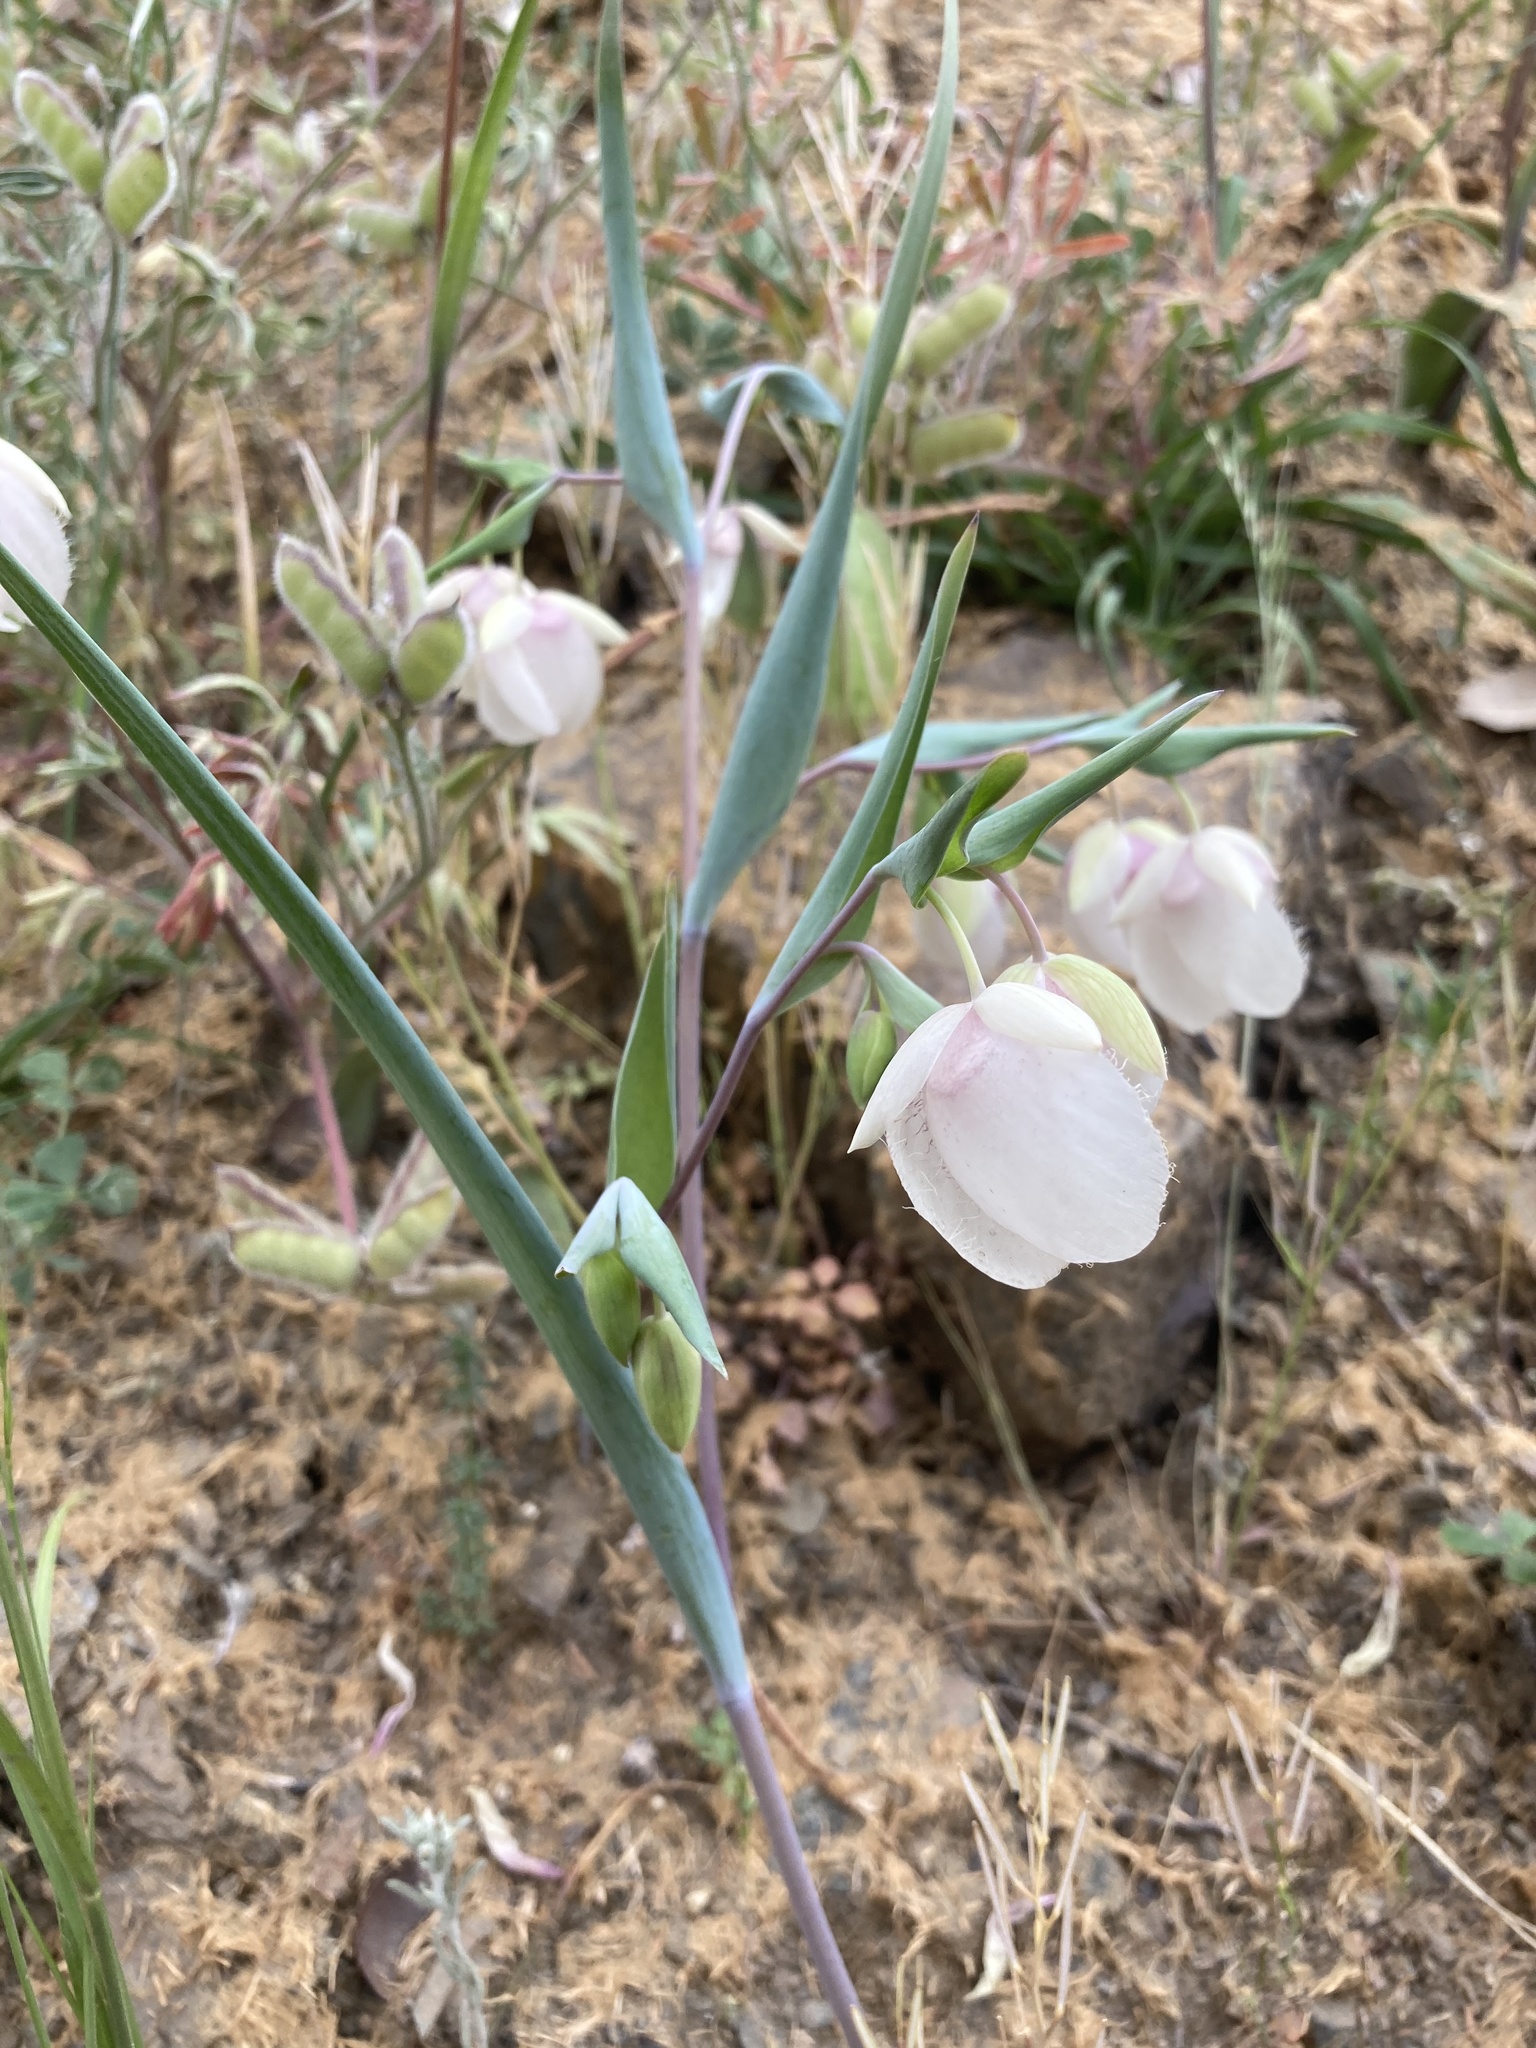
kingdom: Plantae
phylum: Tracheophyta
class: Liliopsida
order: Liliales
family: Liliaceae
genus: Calochortus
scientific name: Calochortus albus
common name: Fairy-lantern
